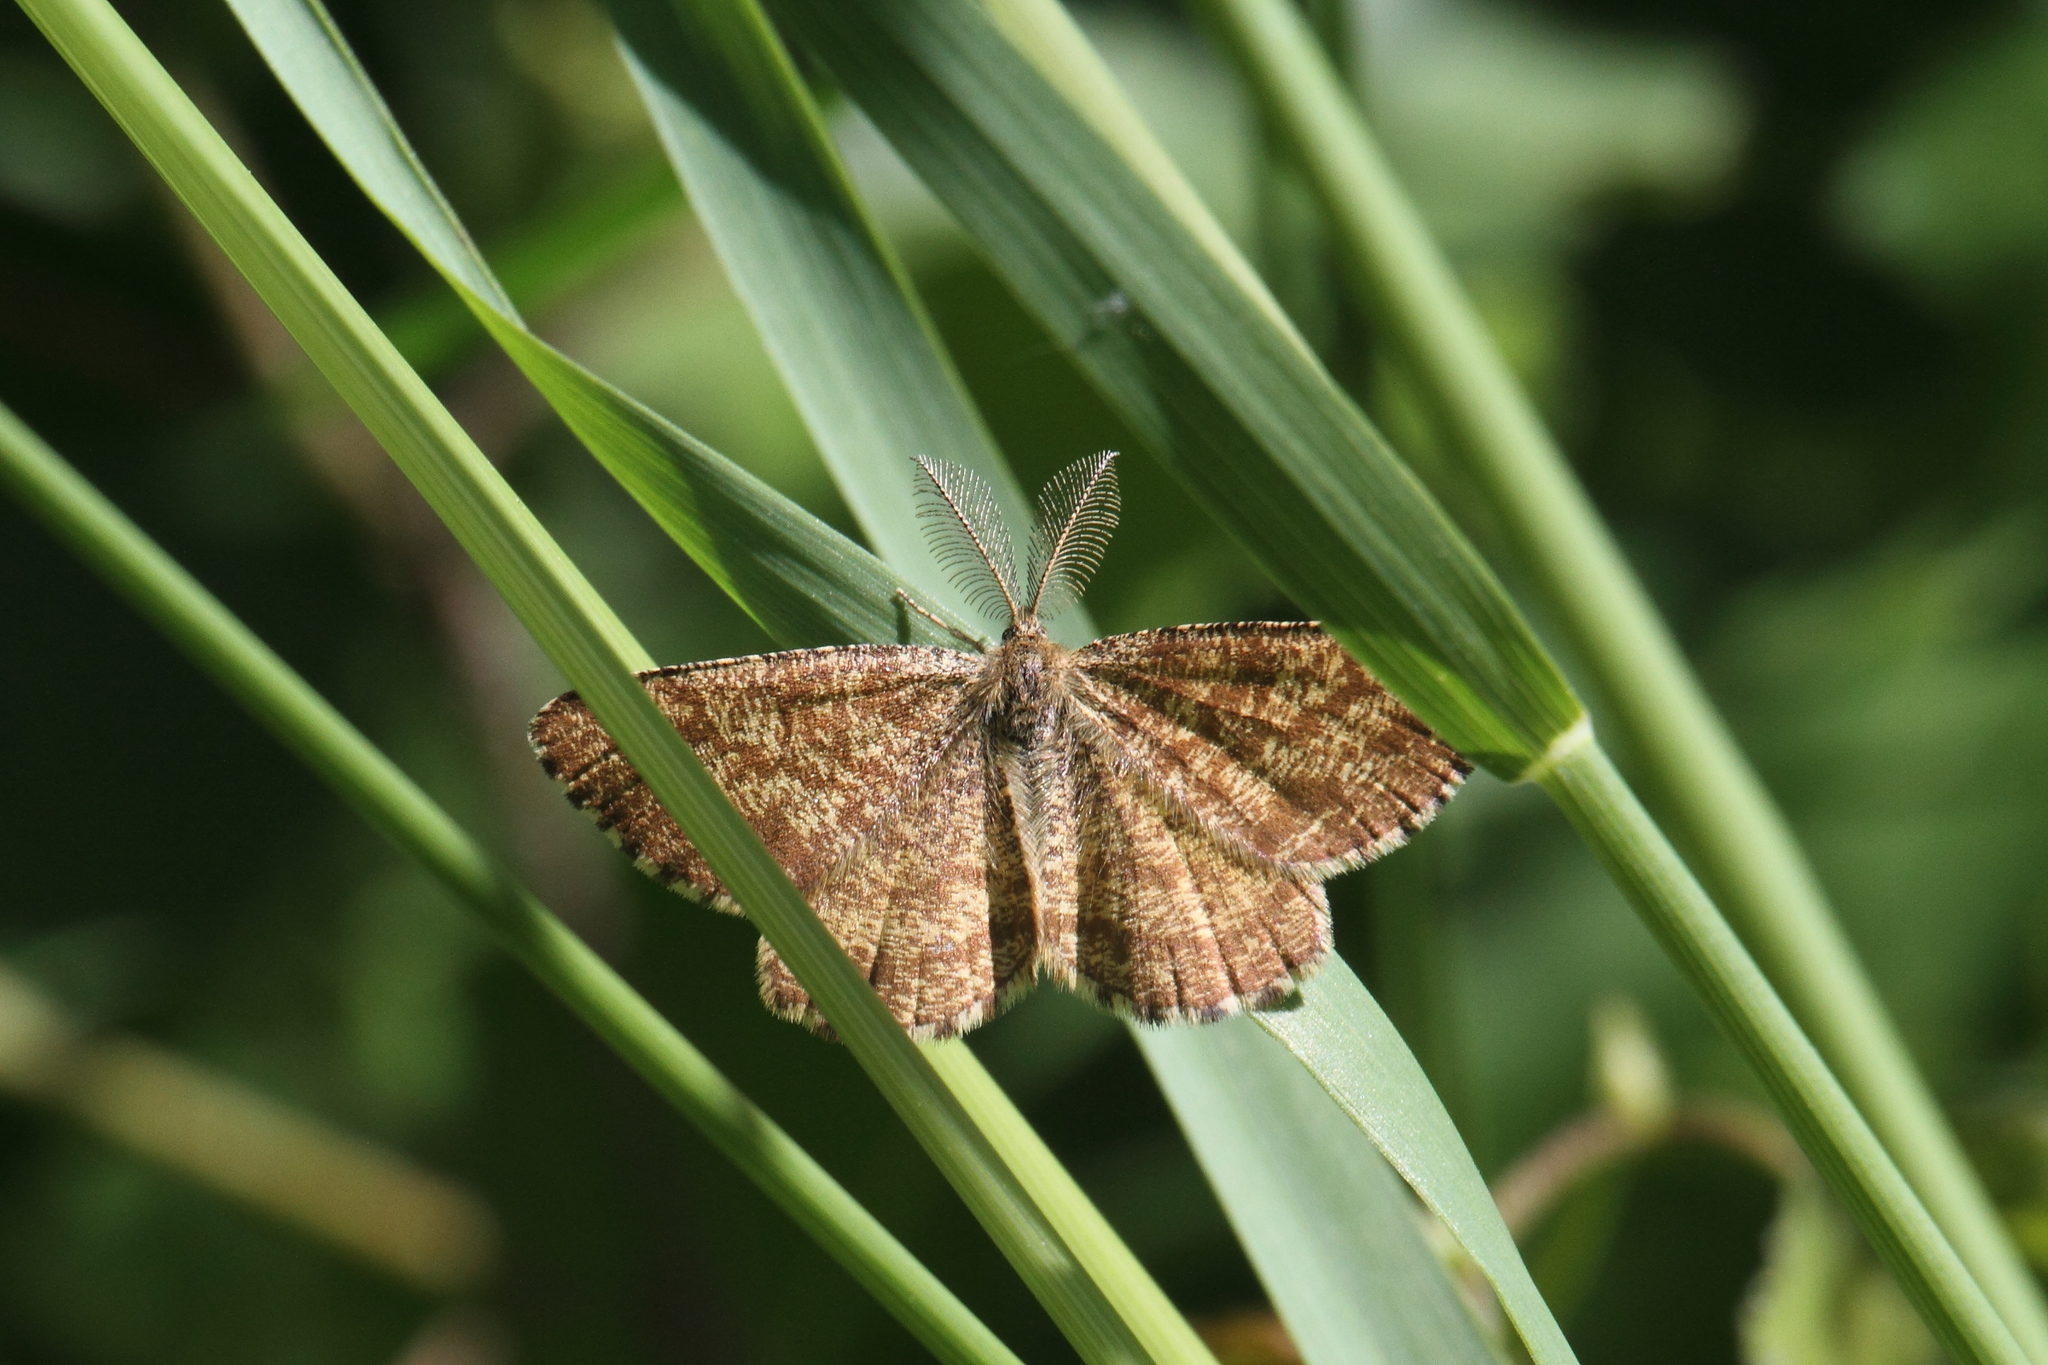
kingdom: Animalia
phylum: Arthropoda
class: Insecta
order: Lepidoptera
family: Geometridae
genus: Ematurga
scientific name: Ematurga atomaria
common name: Common heath
